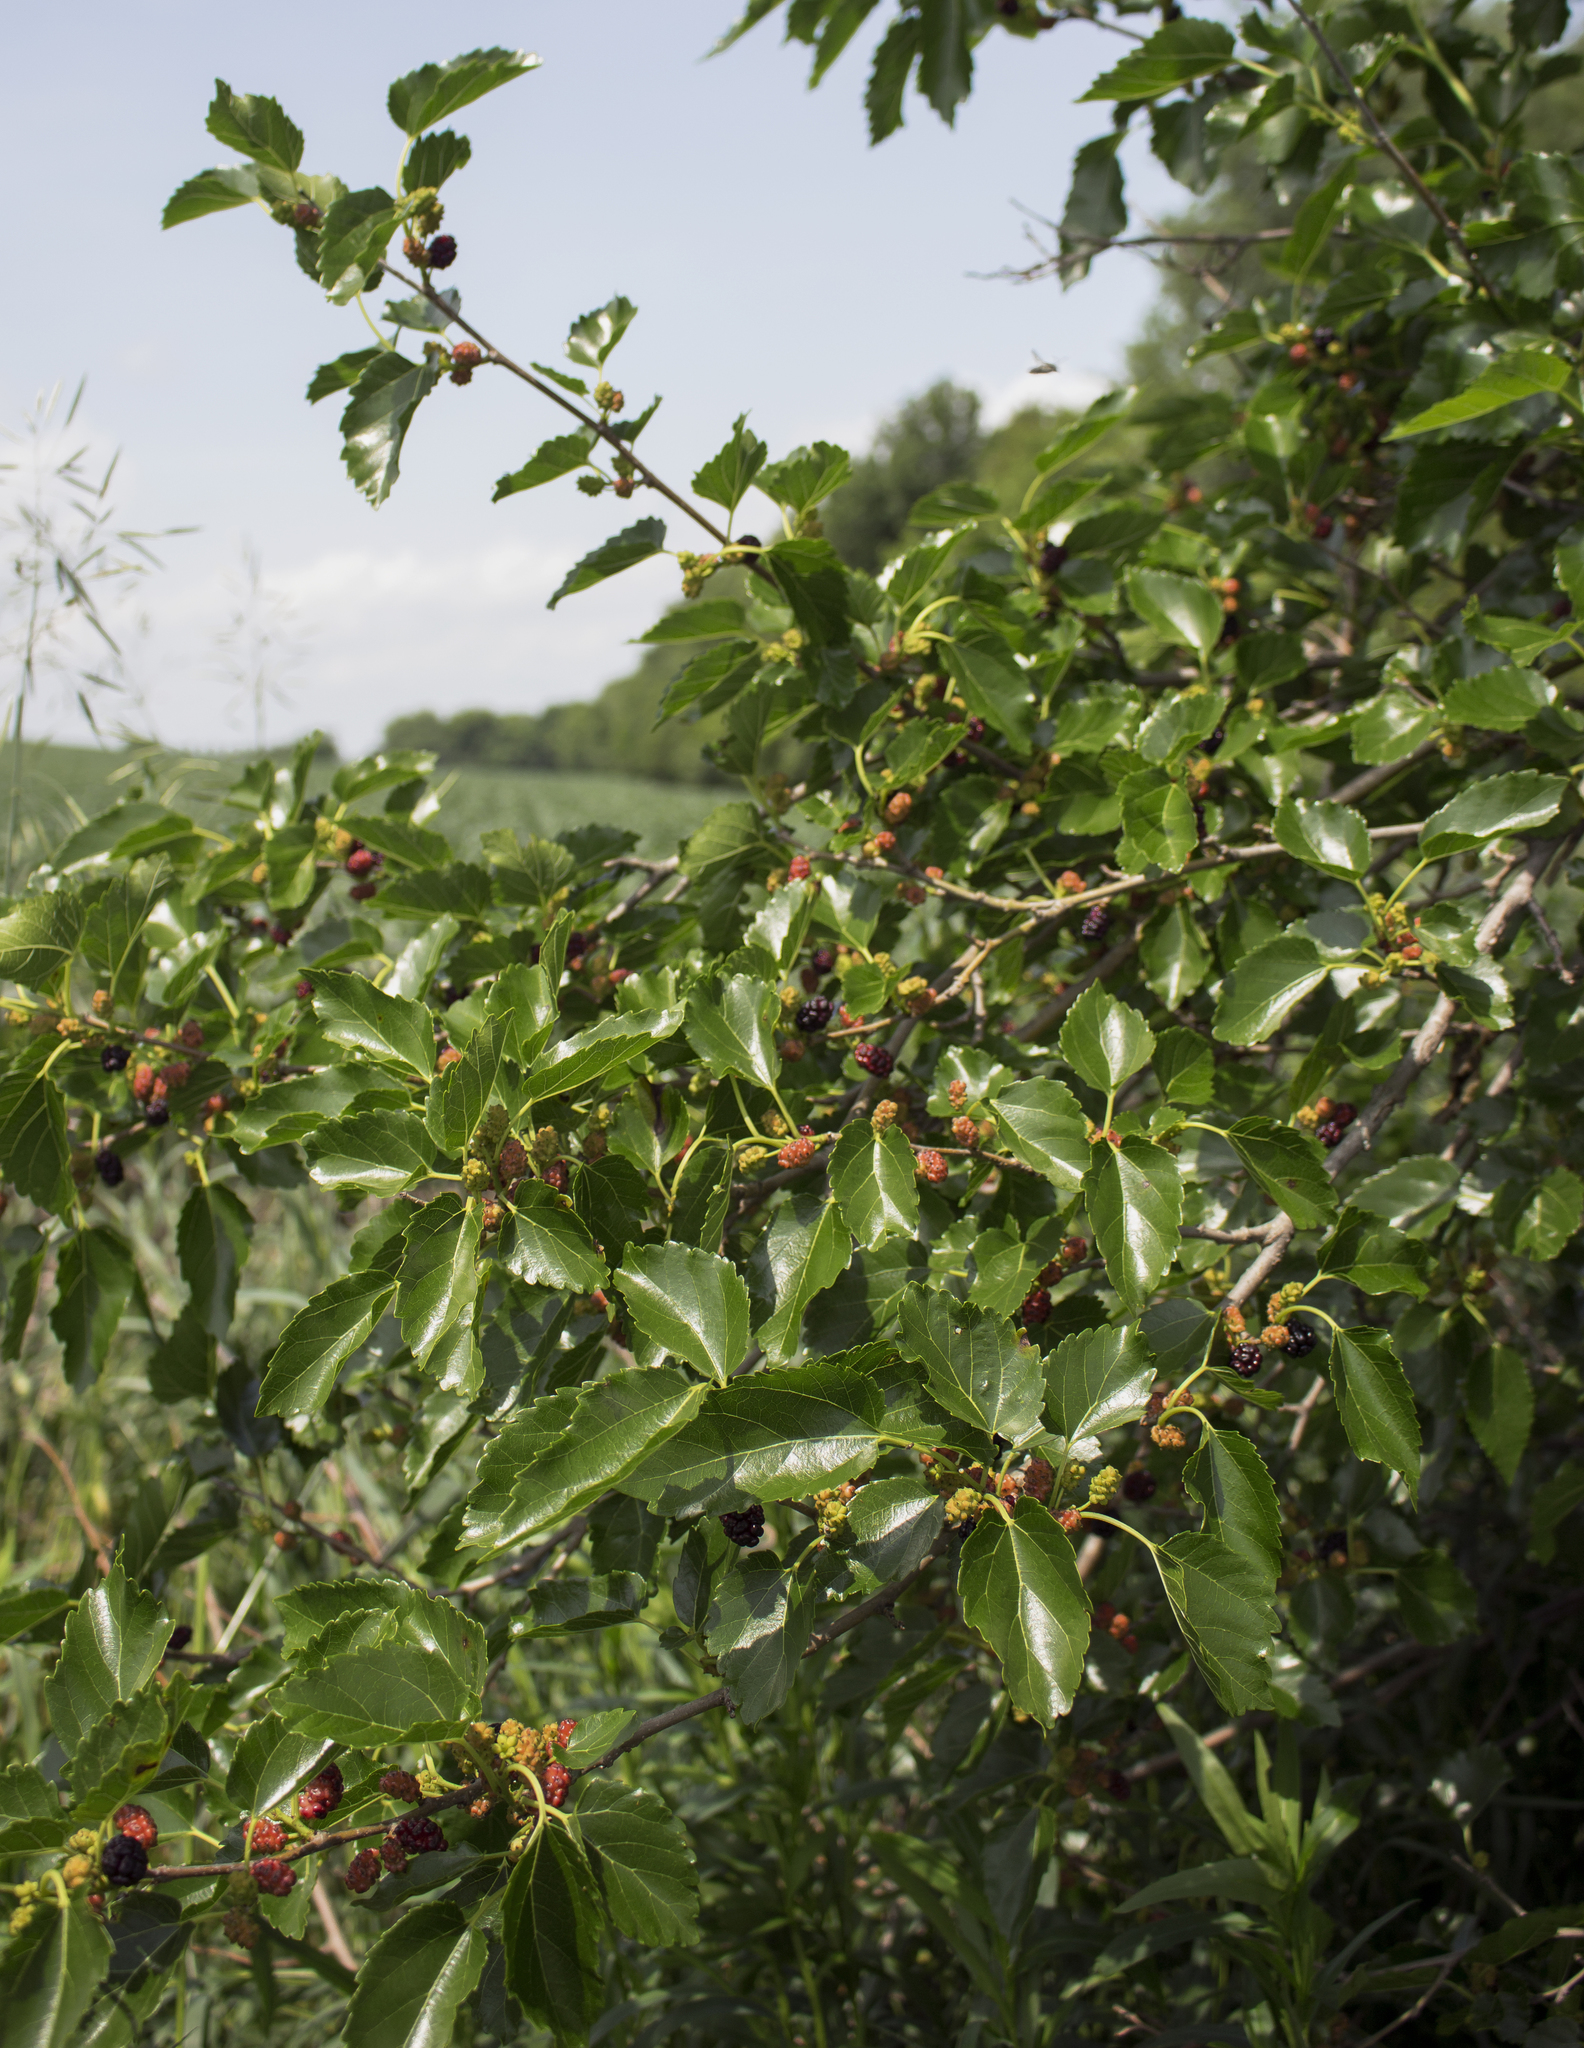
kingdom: Plantae
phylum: Tracheophyta
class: Magnoliopsida
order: Rosales
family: Moraceae
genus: Morus
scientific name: Morus alba
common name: White mulberry
